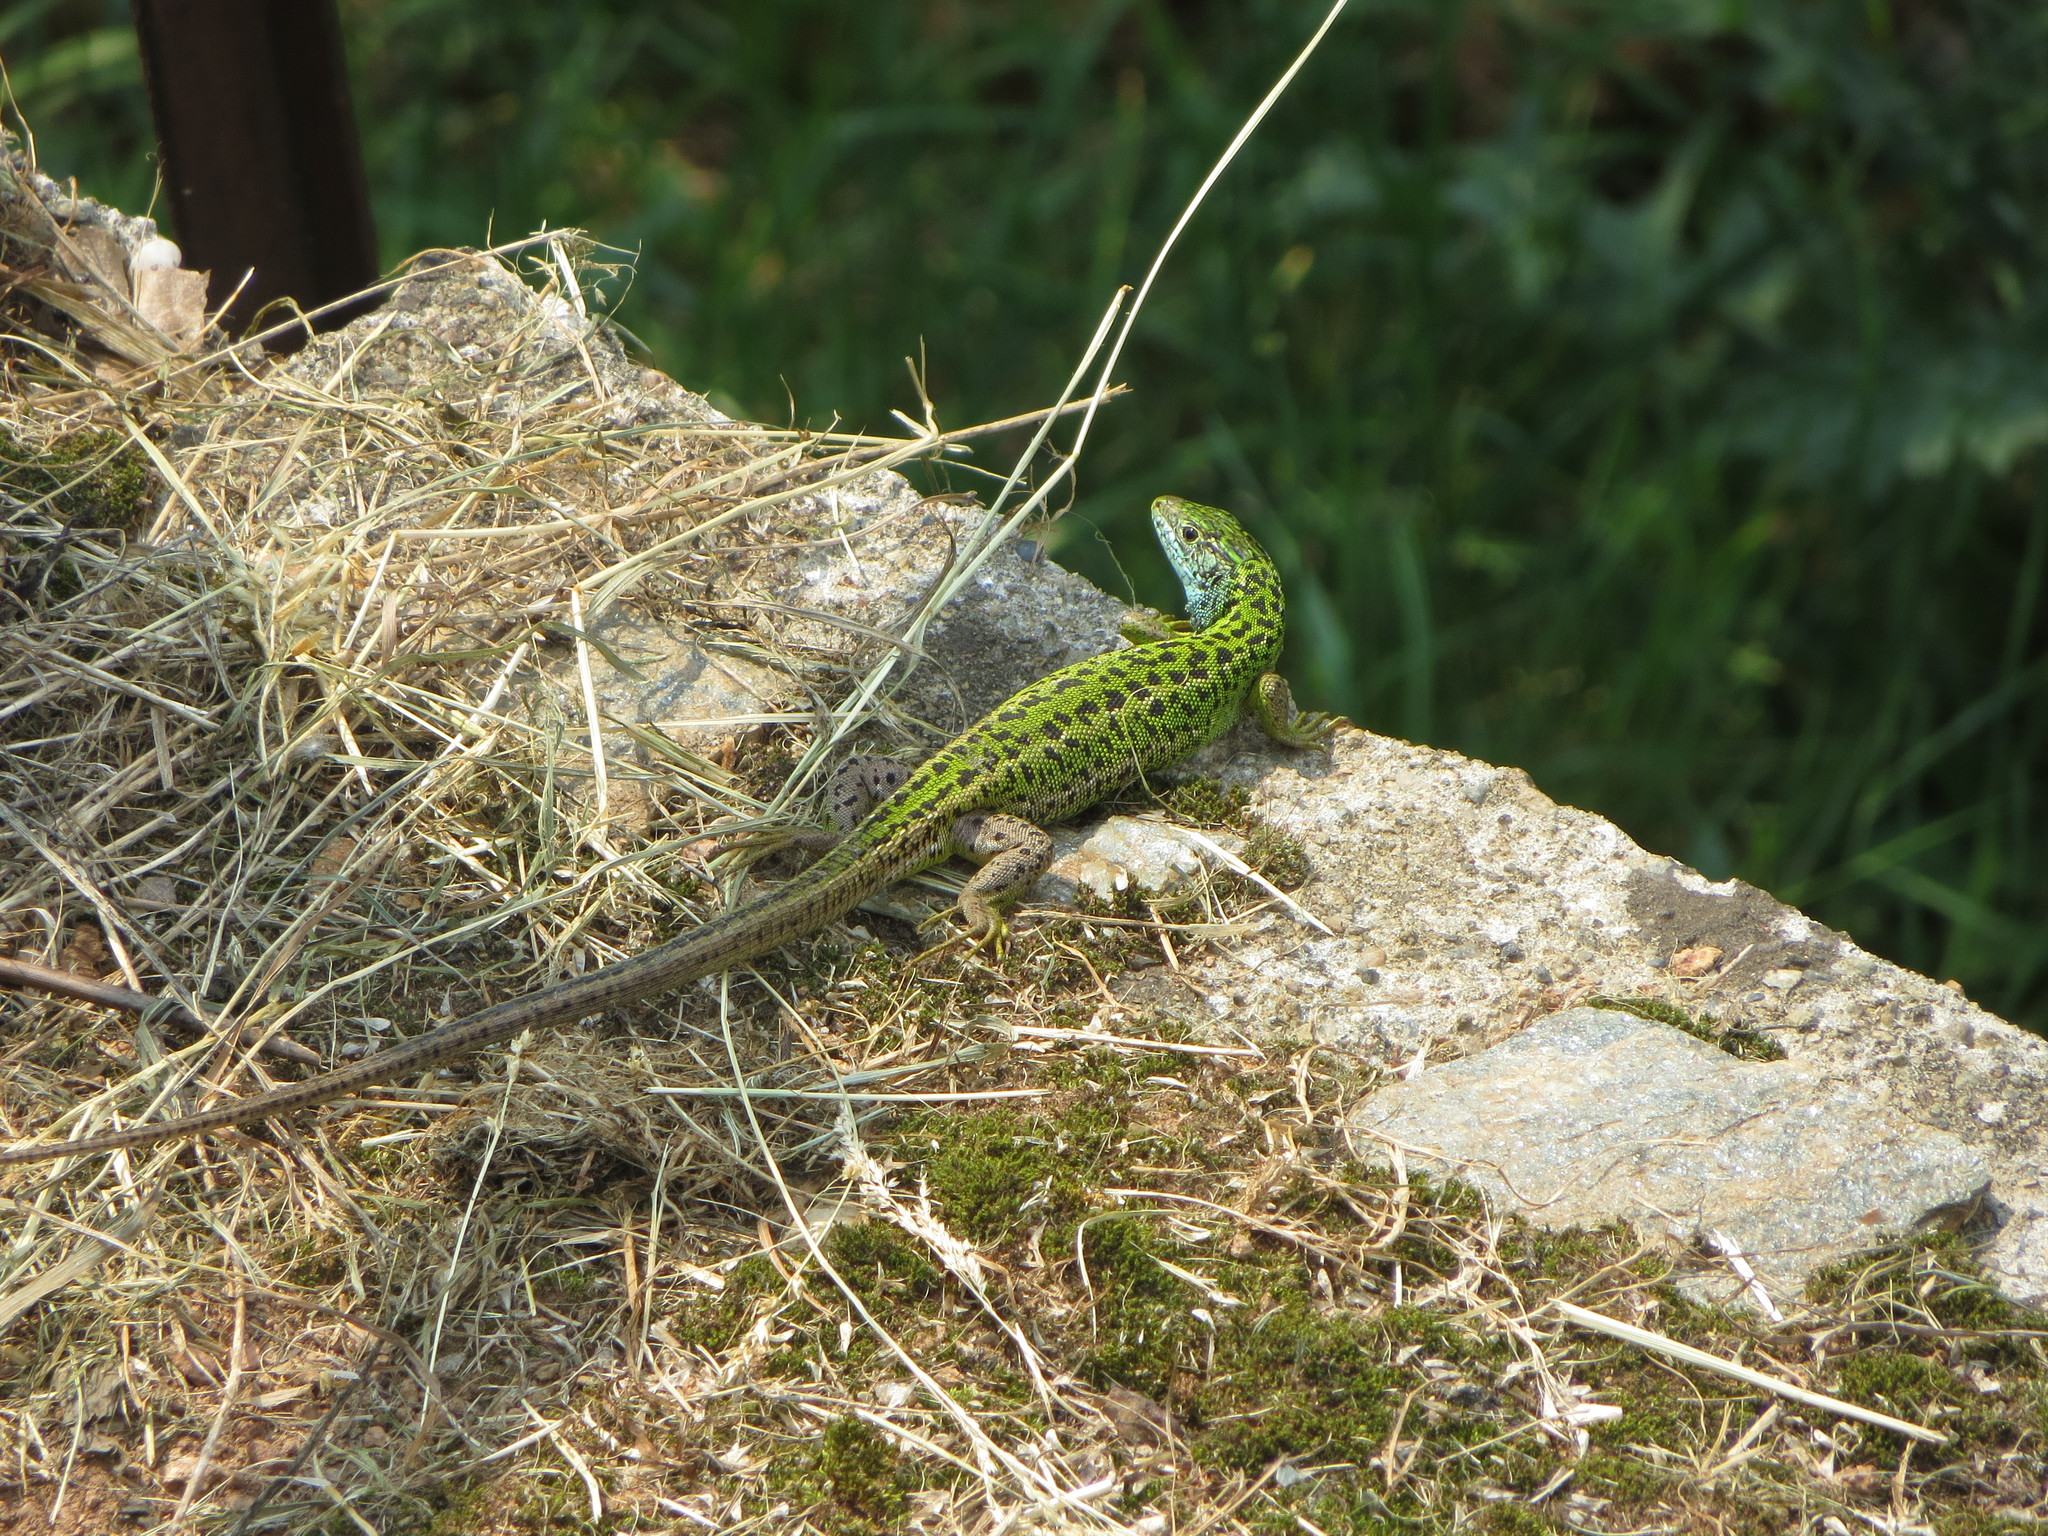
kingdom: Animalia
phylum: Chordata
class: Squamata
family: Lacertidae
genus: Lacerta
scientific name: Lacerta bilineata
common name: Western green lizard
